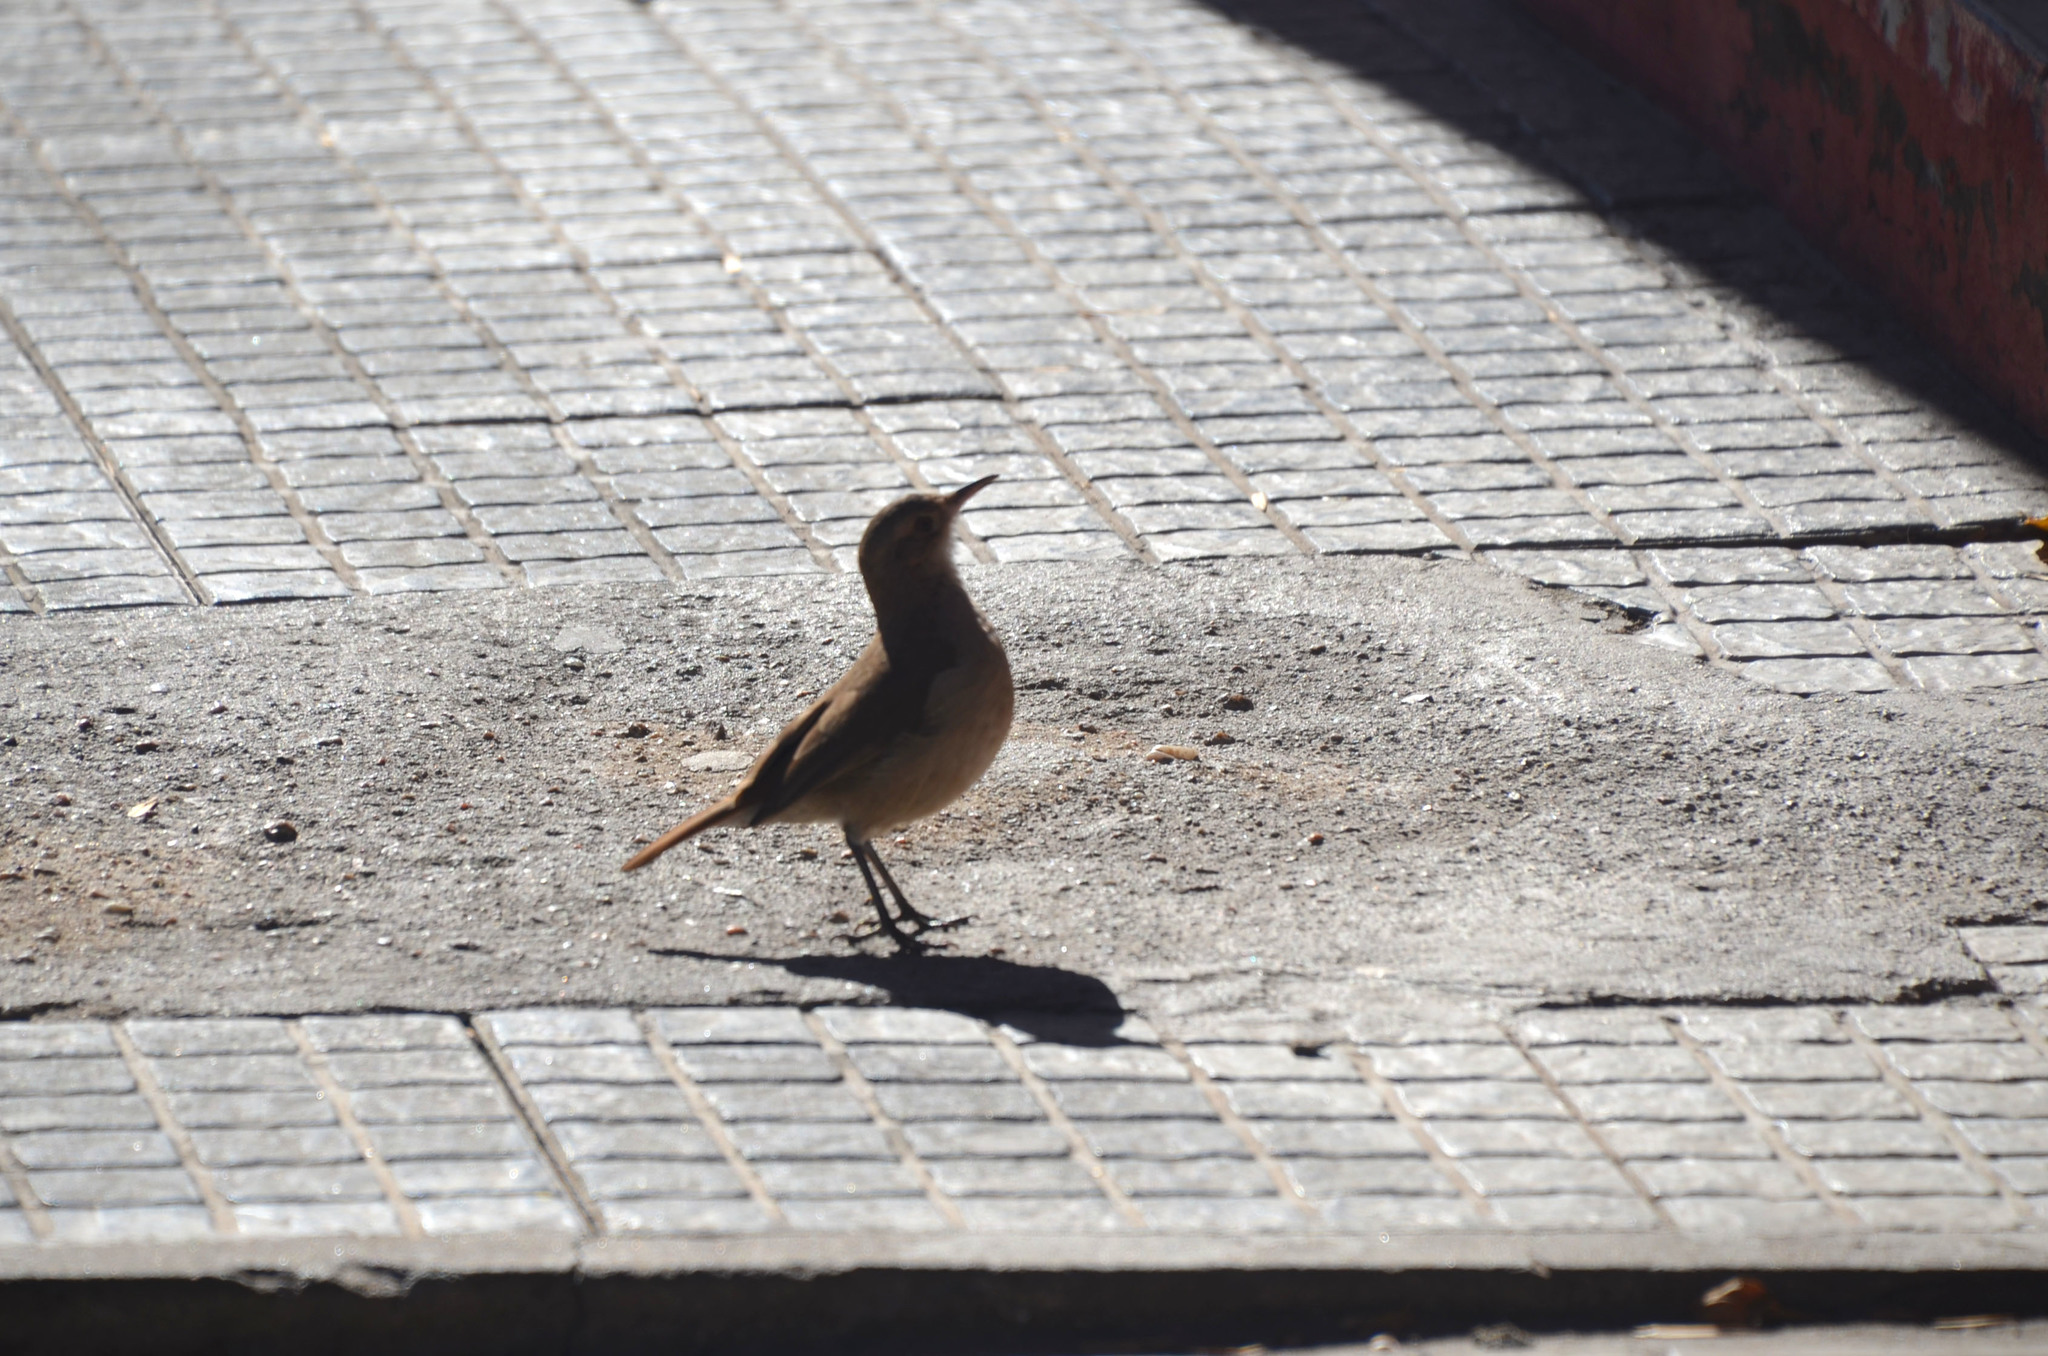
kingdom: Animalia
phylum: Chordata
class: Aves
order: Passeriformes
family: Furnariidae
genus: Furnarius
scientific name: Furnarius rufus
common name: Rufous hornero
